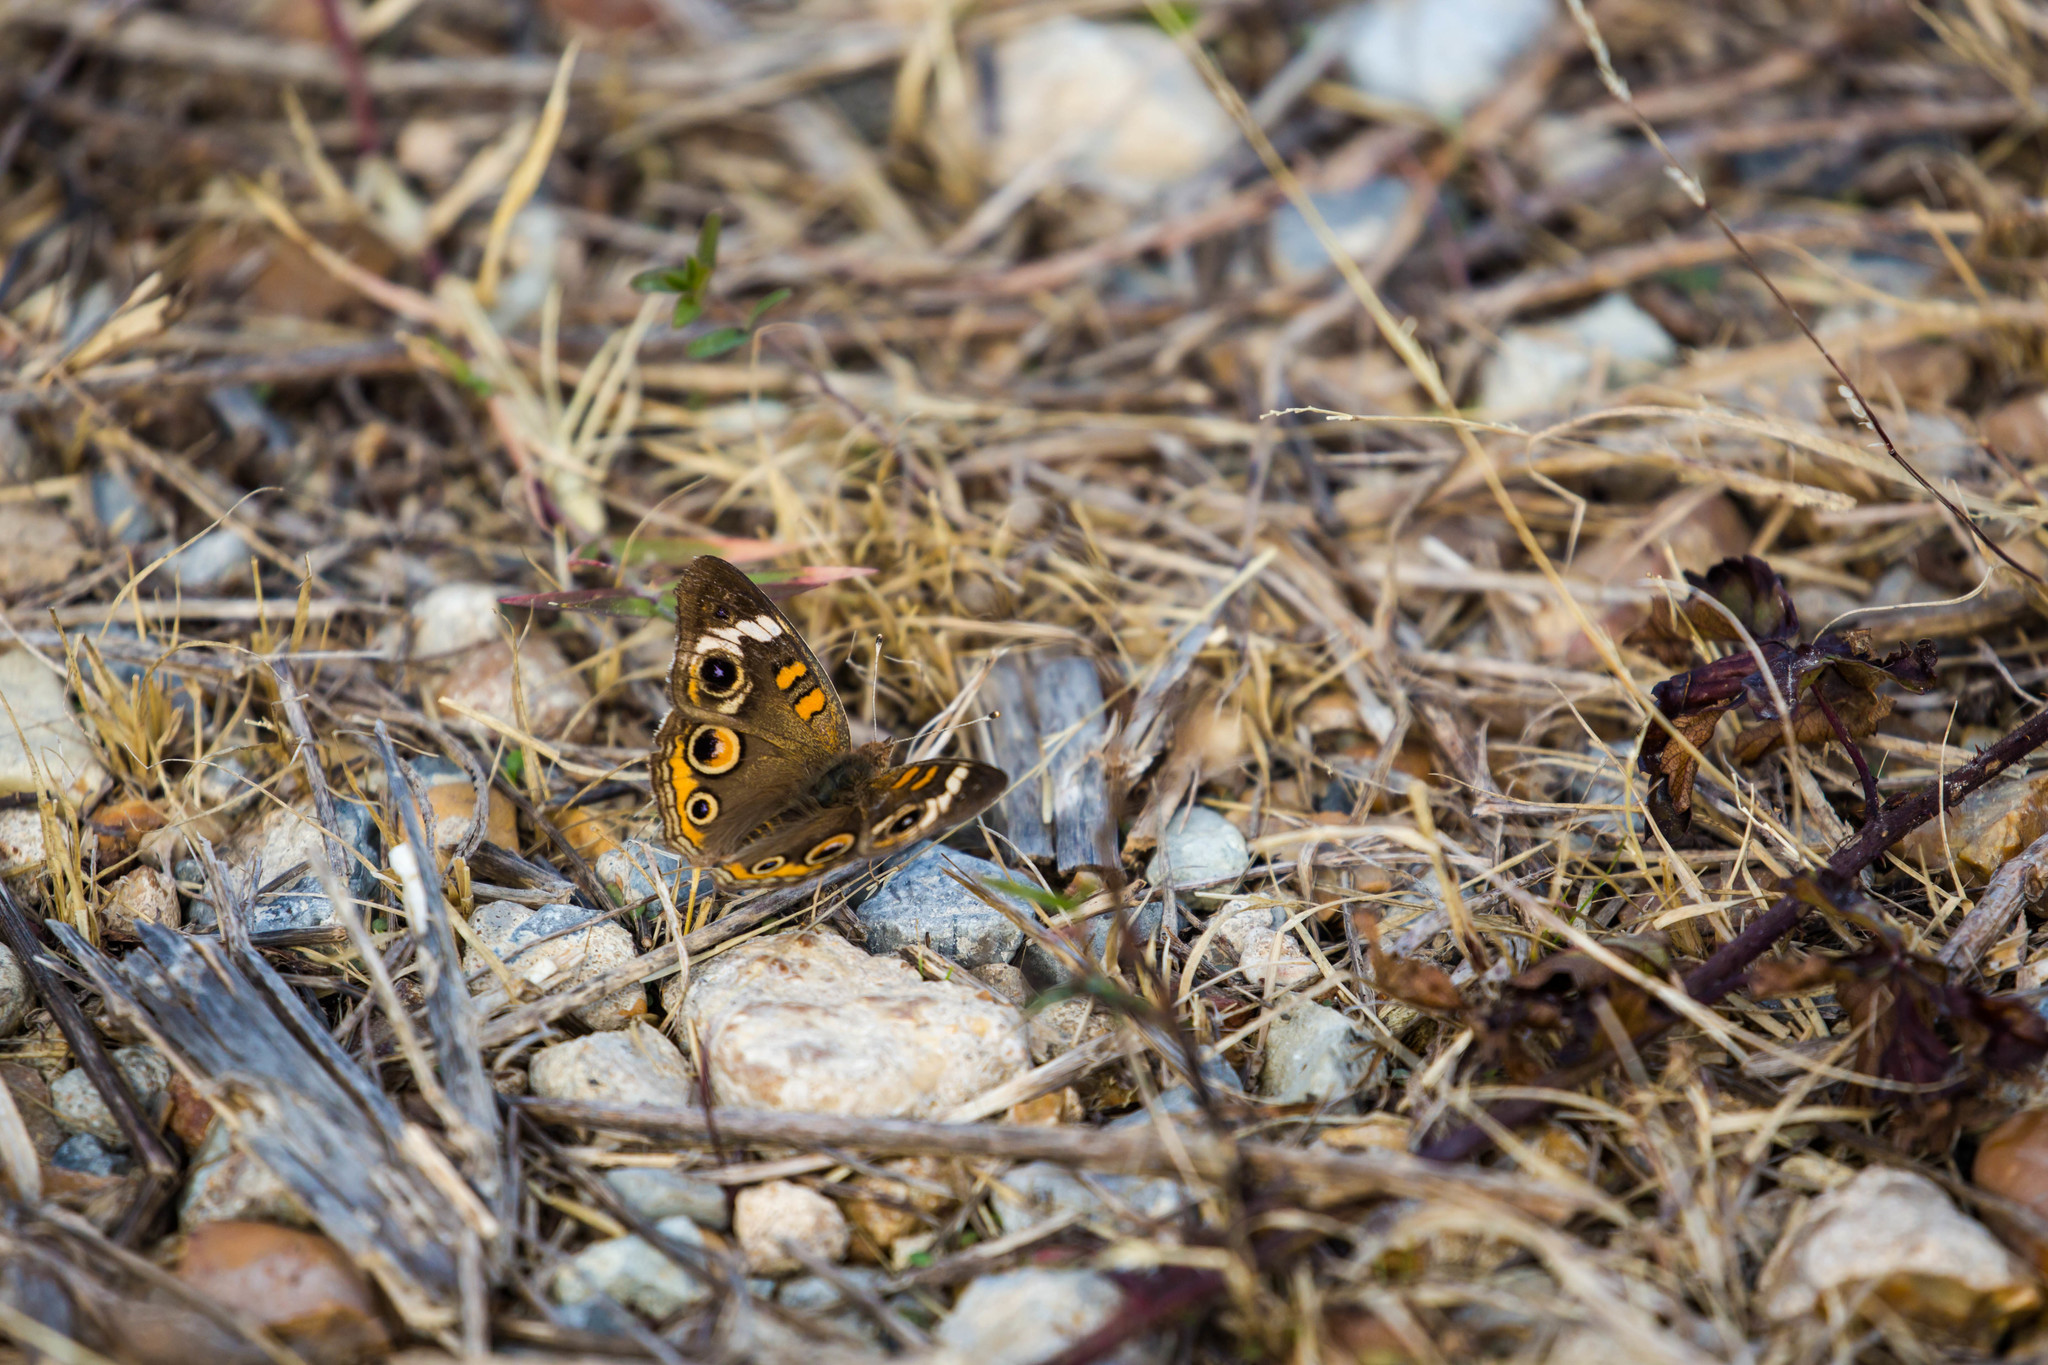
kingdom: Animalia
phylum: Arthropoda
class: Insecta
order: Lepidoptera
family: Nymphalidae
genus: Junonia
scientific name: Junonia coenia
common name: Common buckeye
